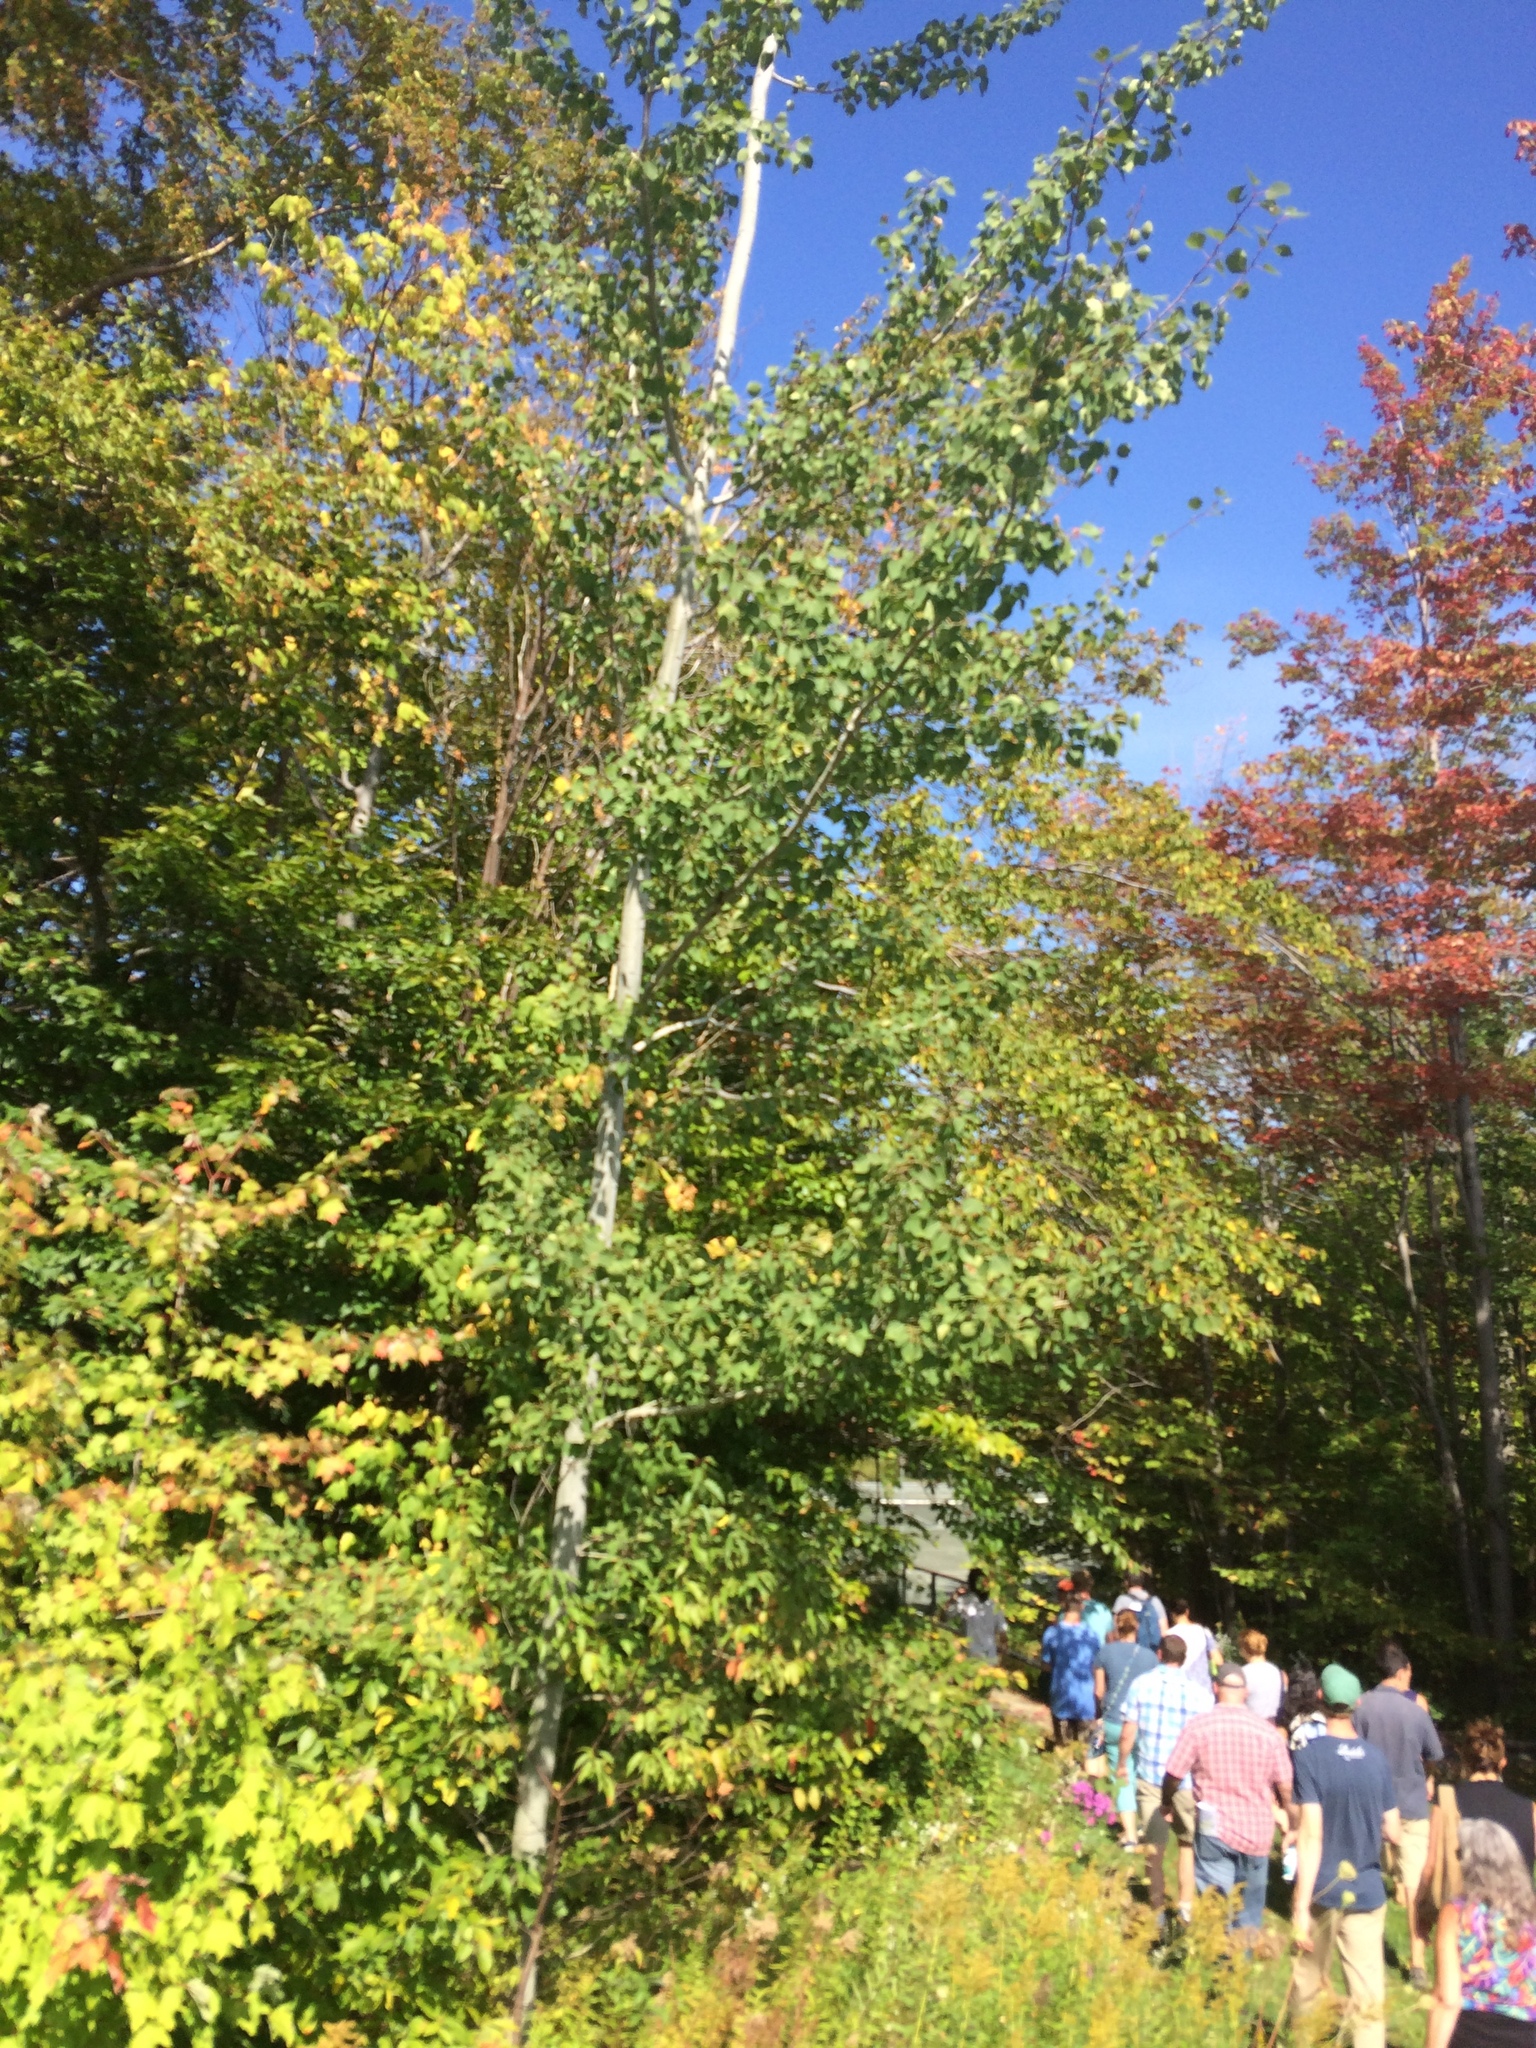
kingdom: Plantae
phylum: Tracheophyta
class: Magnoliopsida
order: Malpighiales
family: Salicaceae
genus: Populus
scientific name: Populus tremuloides
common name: Quaking aspen
